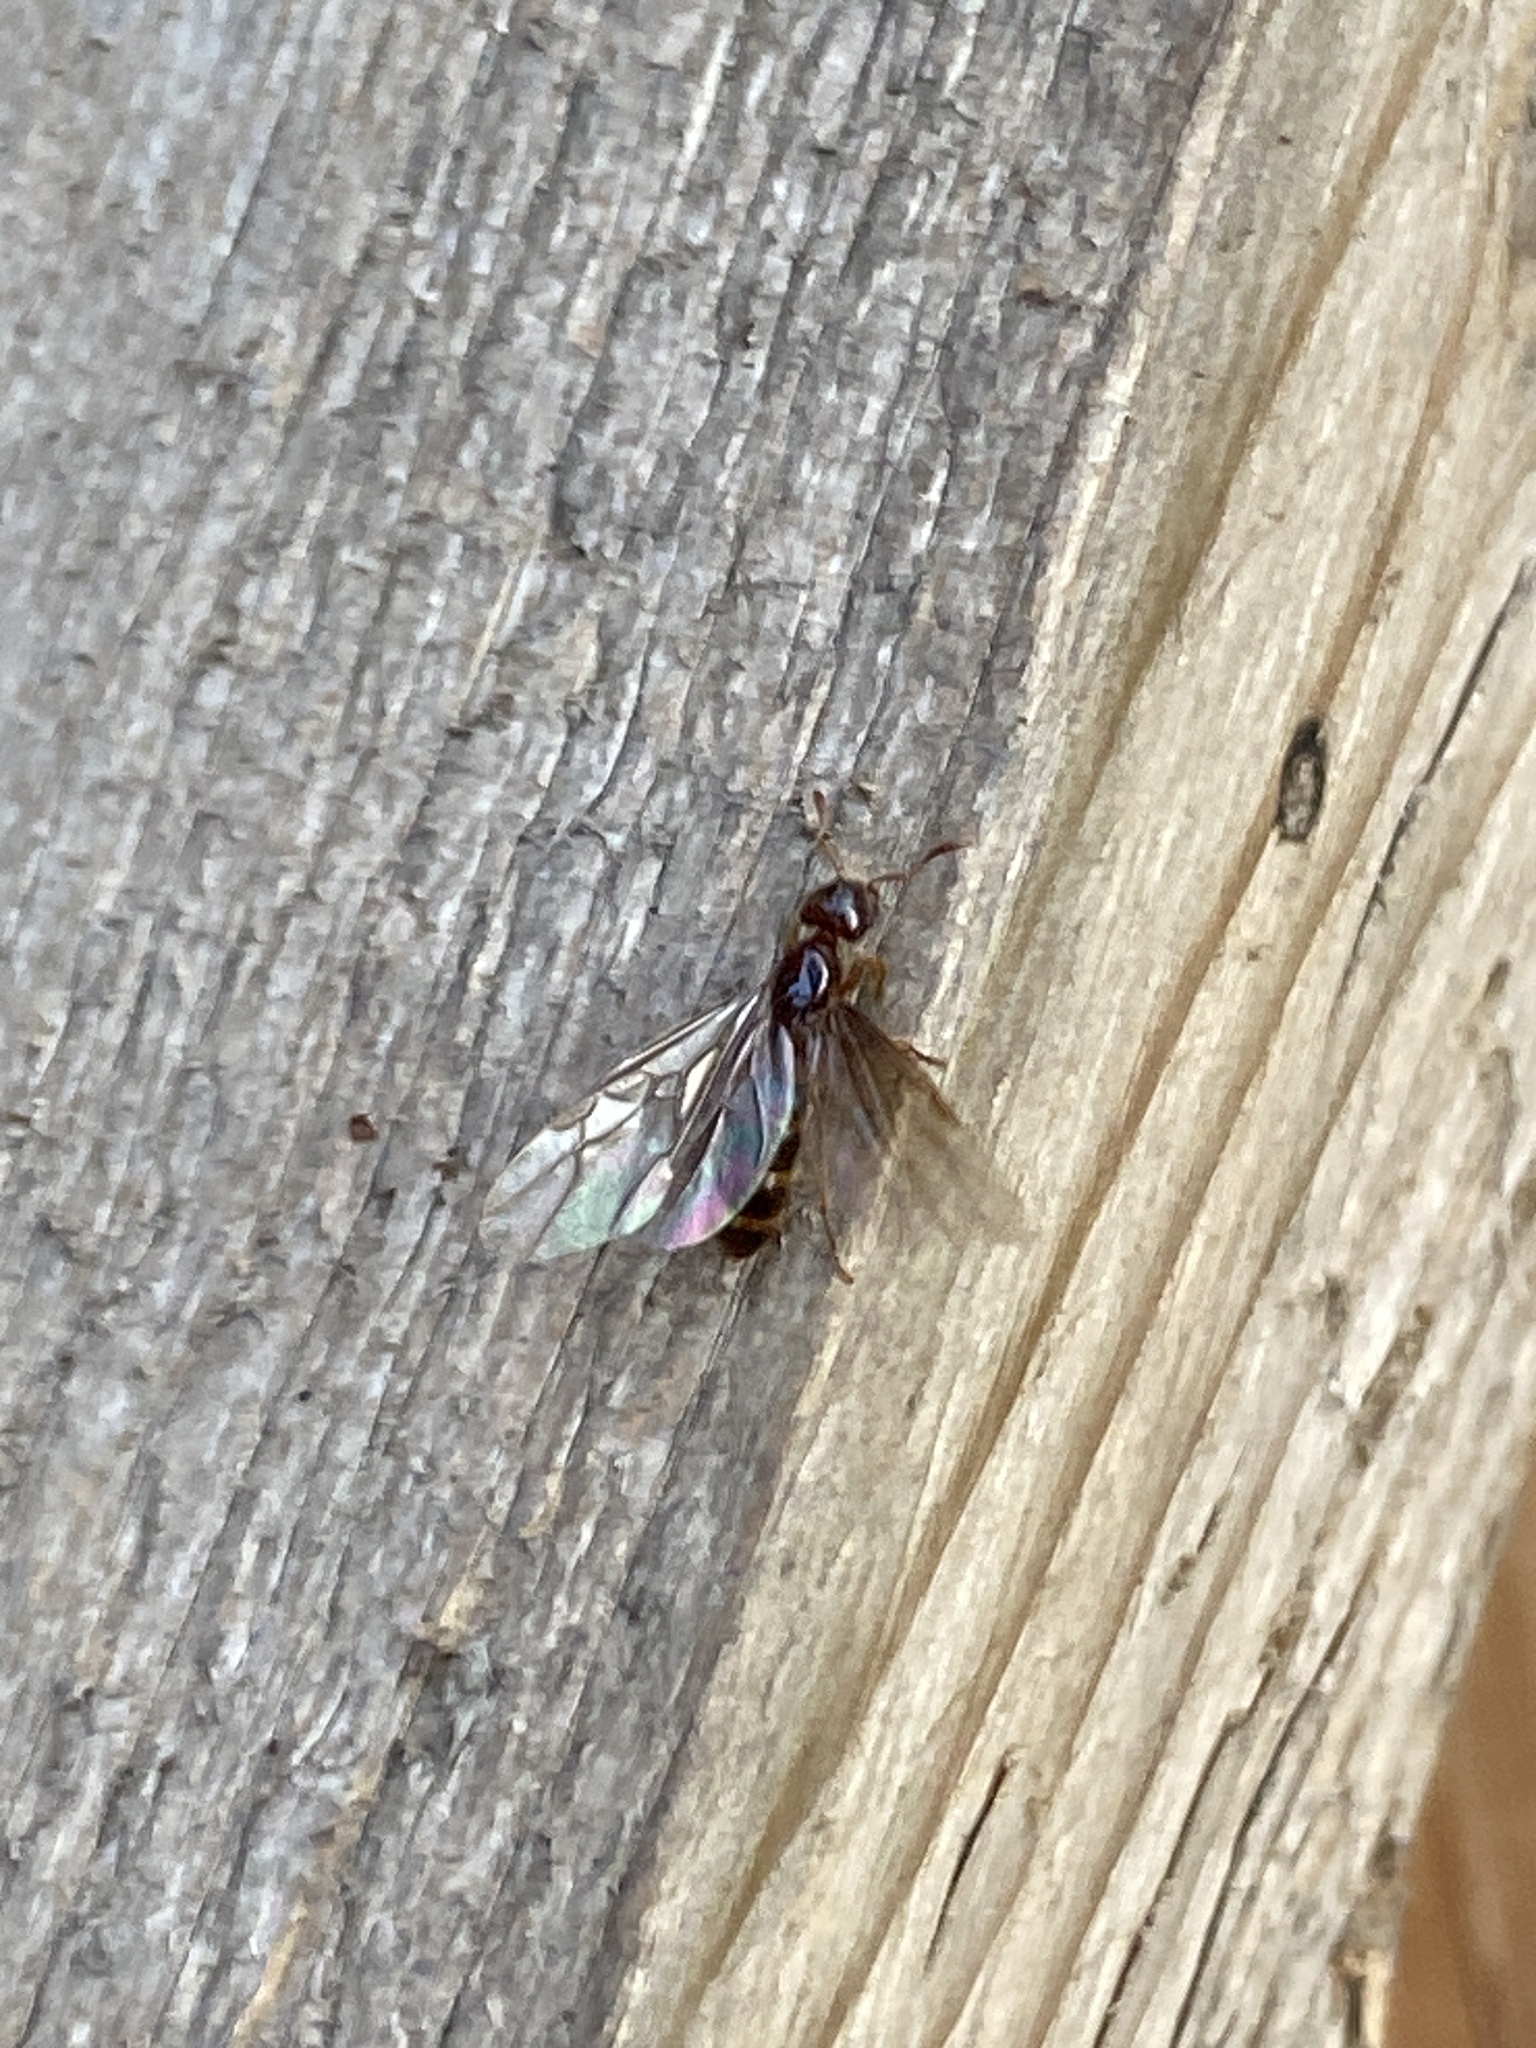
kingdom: Animalia
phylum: Arthropoda
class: Insecta
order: Hymenoptera
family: Formicidae
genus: Lasius
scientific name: Lasius claviger
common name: Common citronella ant
